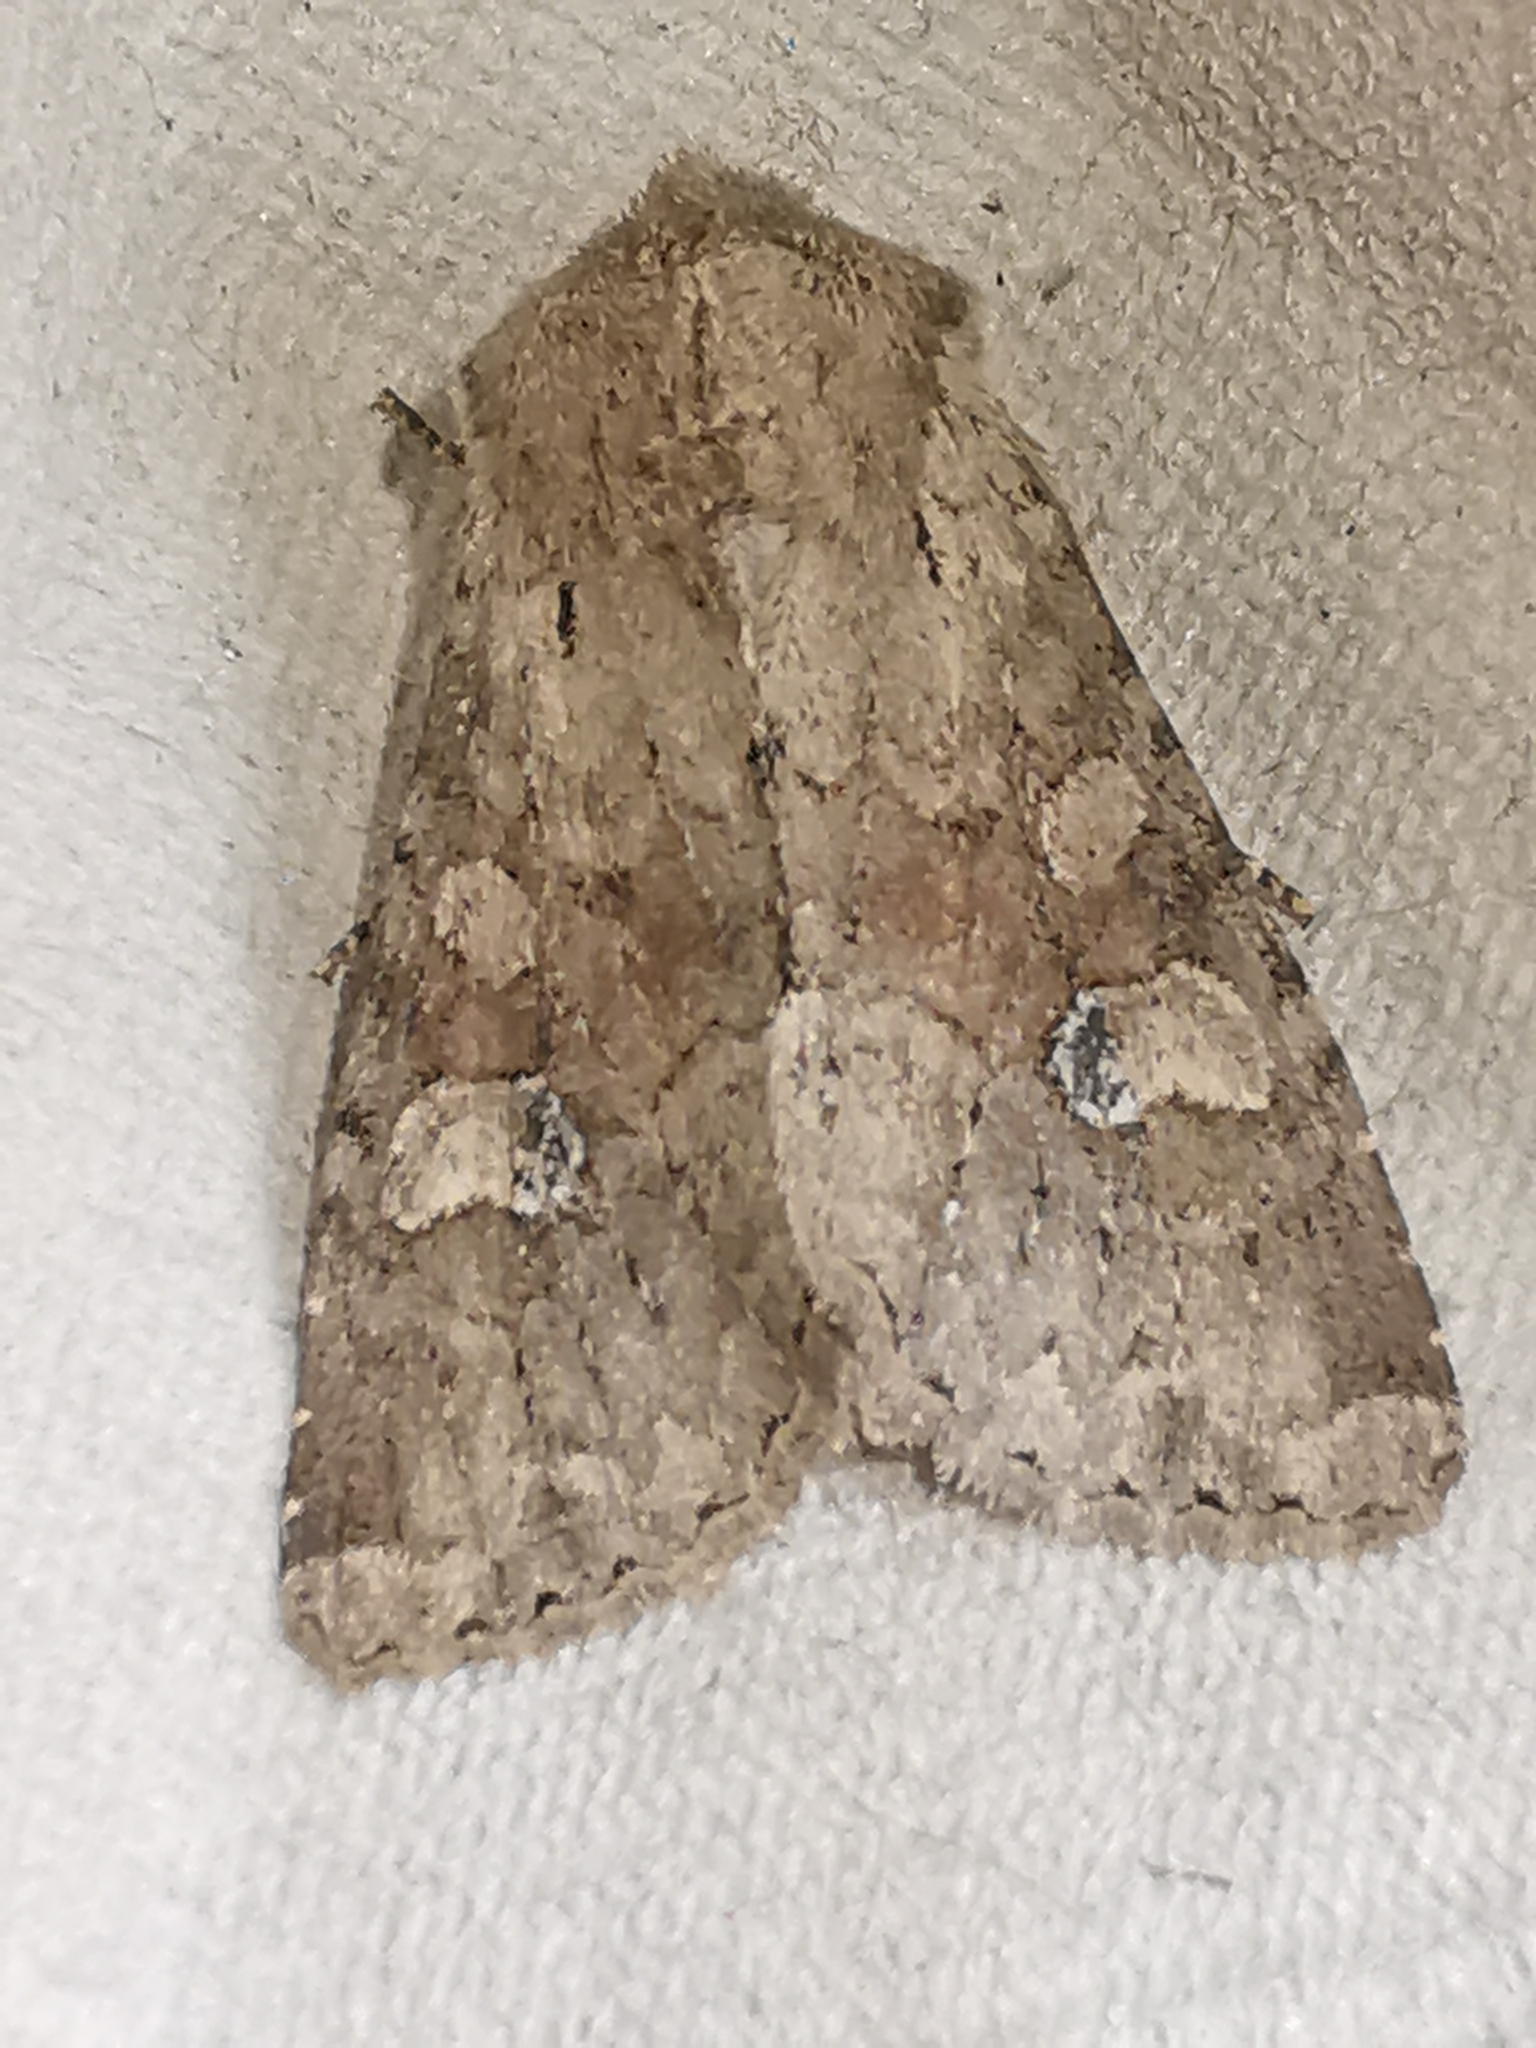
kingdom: Animalia
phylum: Arthropoda
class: Insecta
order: Lepidoptera
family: Noctuidae
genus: Apamea
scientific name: Apamea sordens
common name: Rustic shoulder-knot
